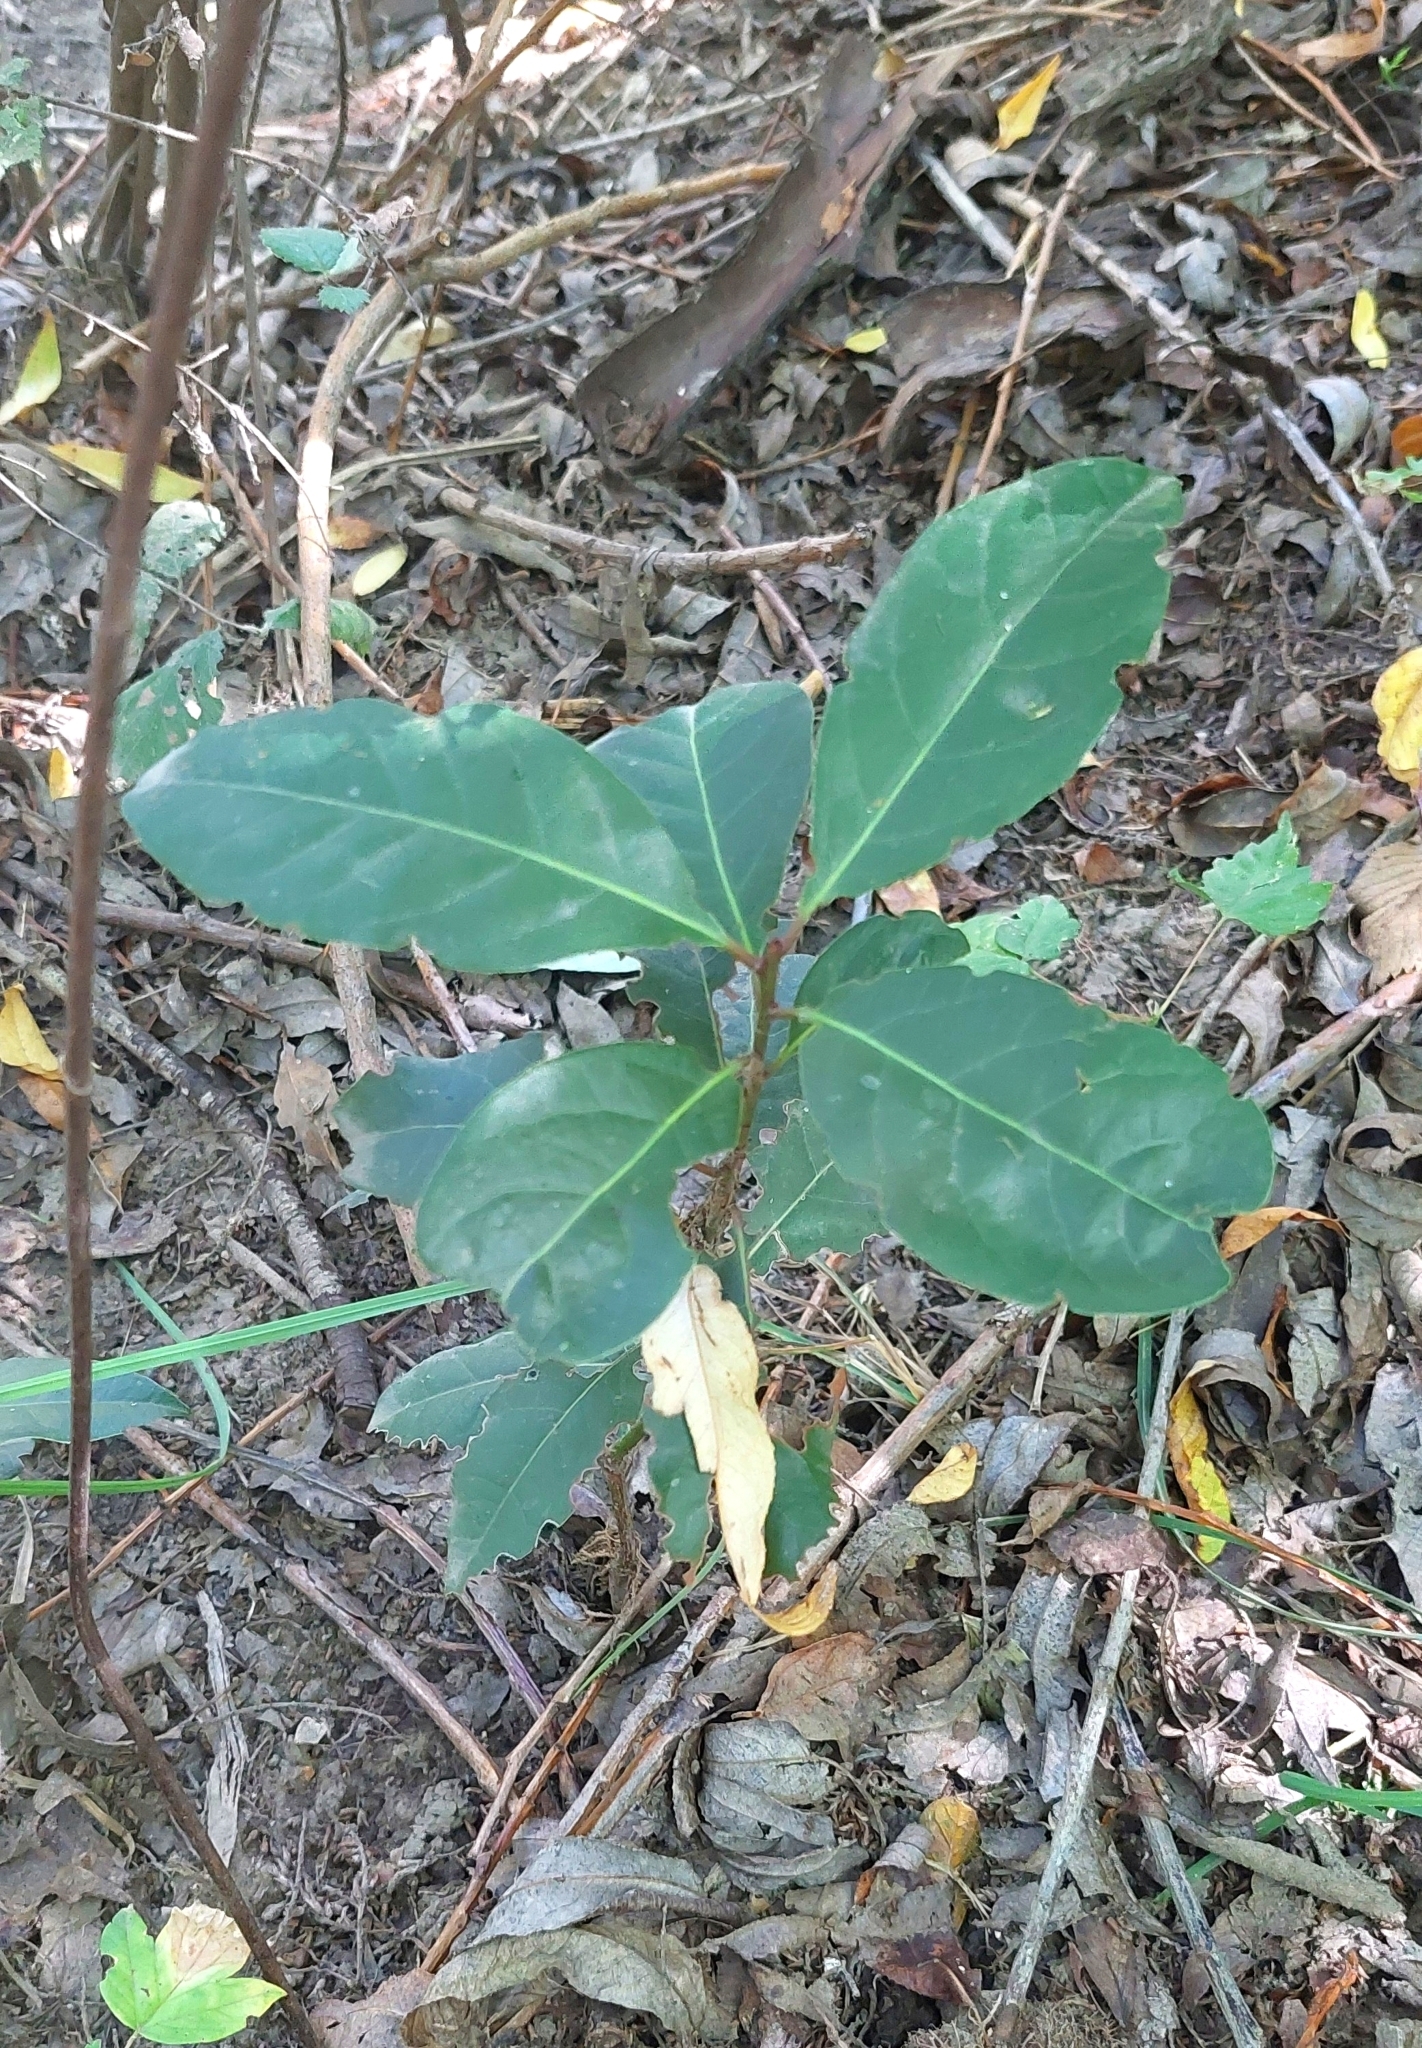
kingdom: Plantae
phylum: Tracheophyta
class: Magnoliopsida
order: Laurales
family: Lauraceae
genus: Laurus
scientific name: Laurus nobilis
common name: Bay
